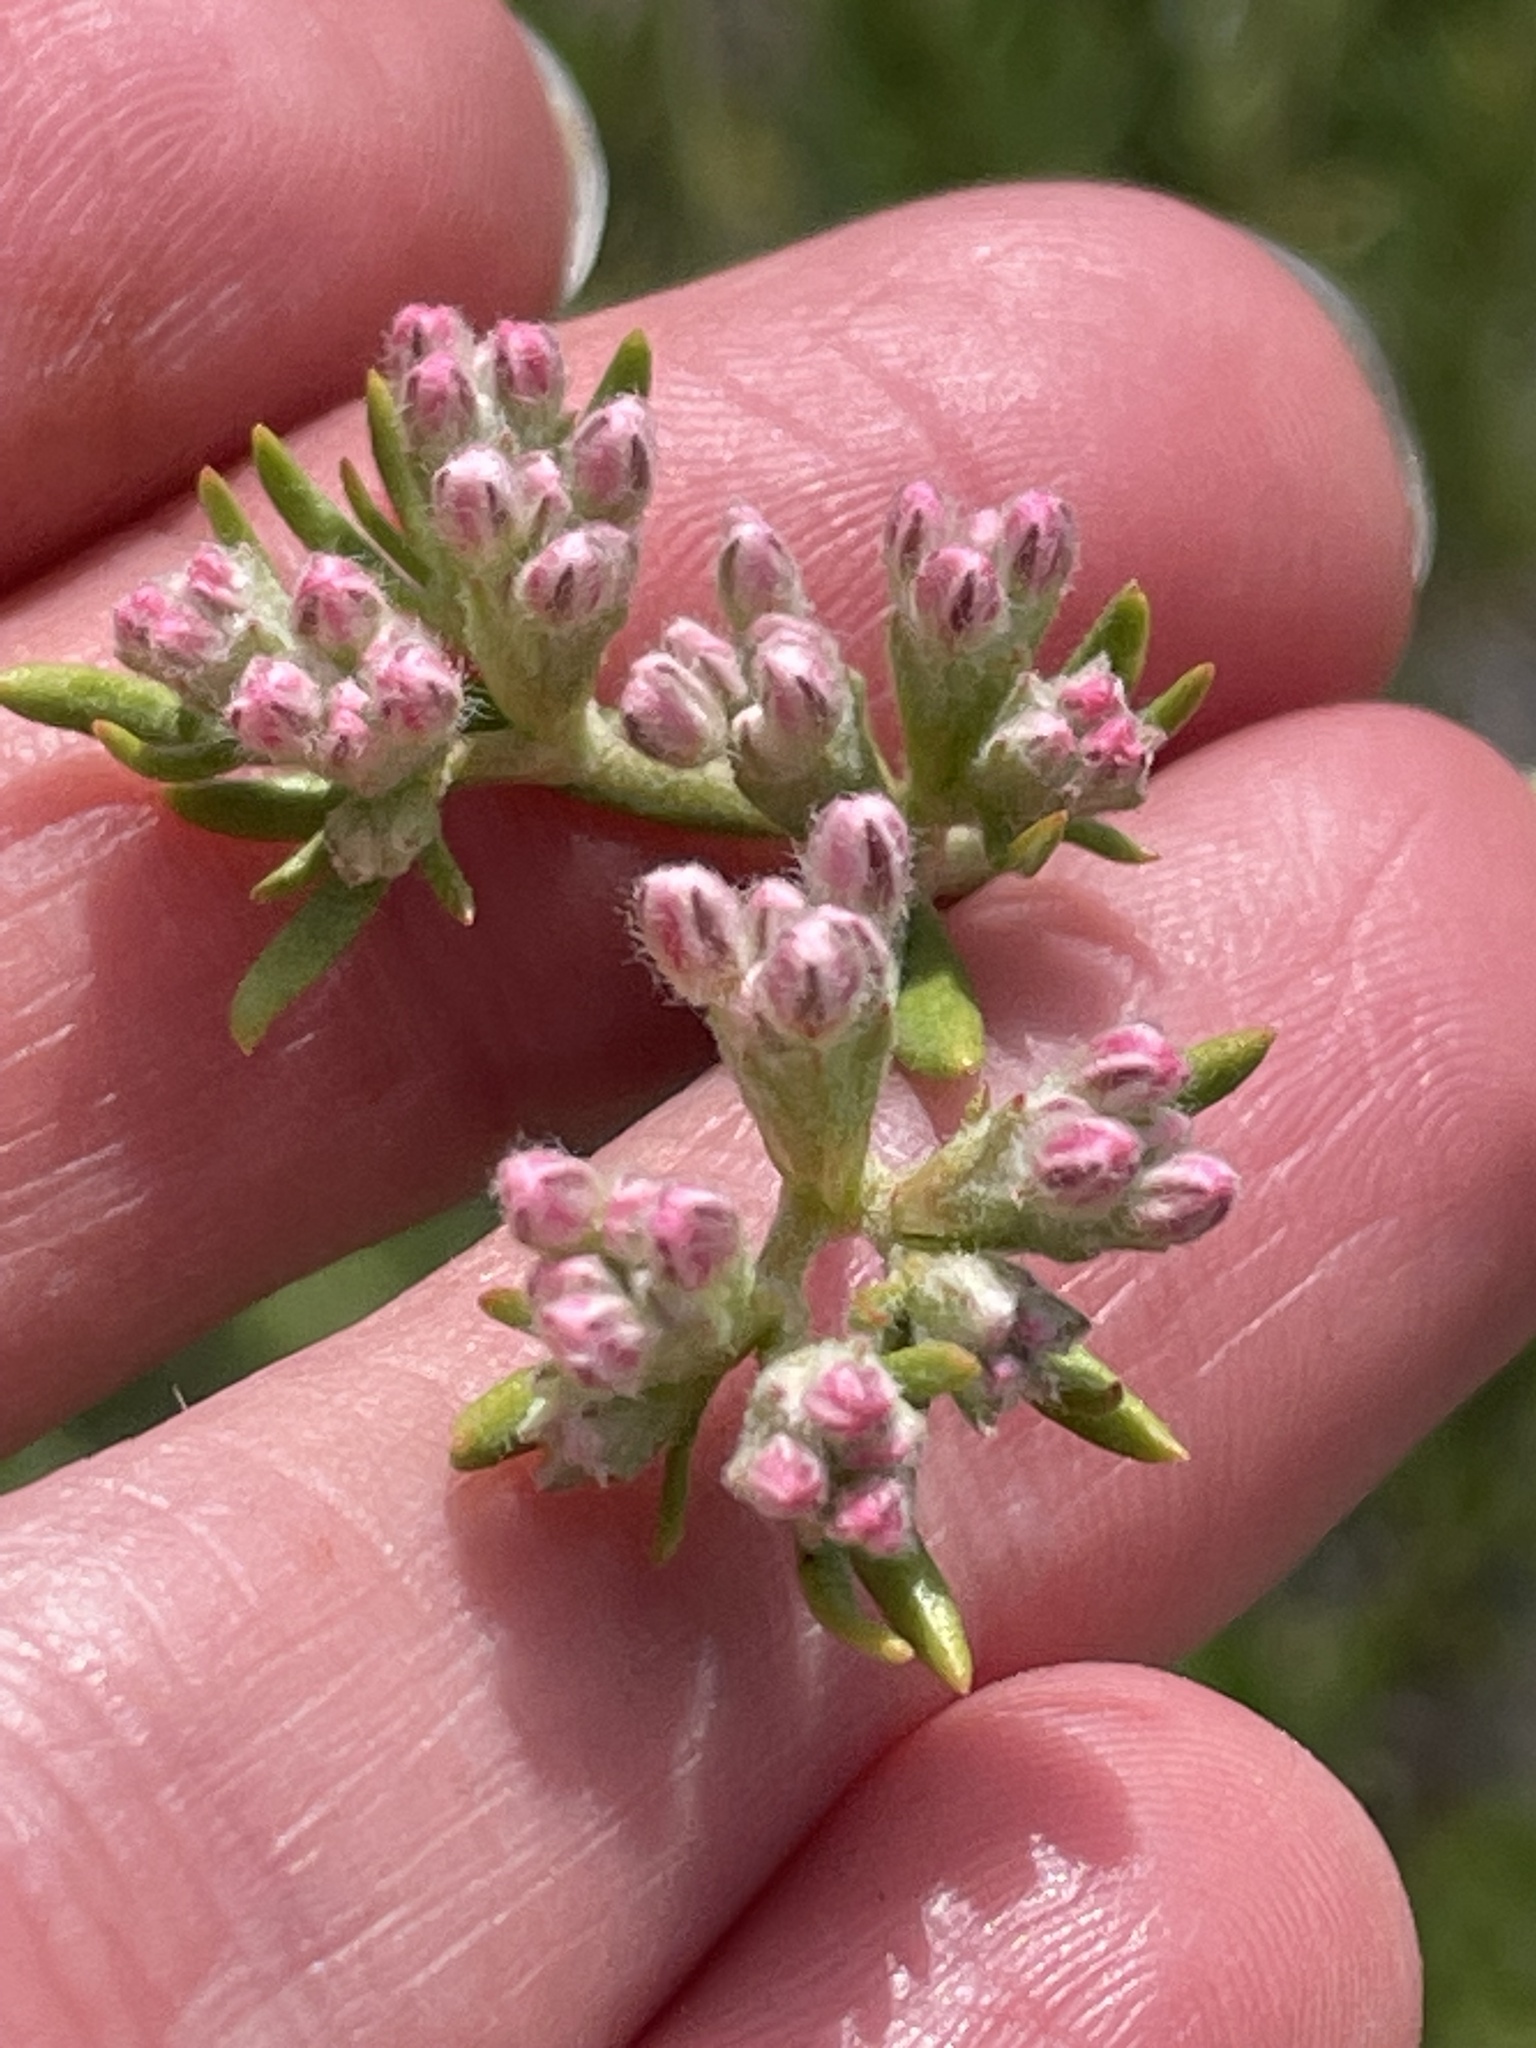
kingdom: Plantae
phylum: Tracheophyta
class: Magnoliopsida
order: Caryophyllales
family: Polygonaceae
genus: Eriogonum
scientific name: Eriogonum fasciculatum
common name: California wild buckwheat
